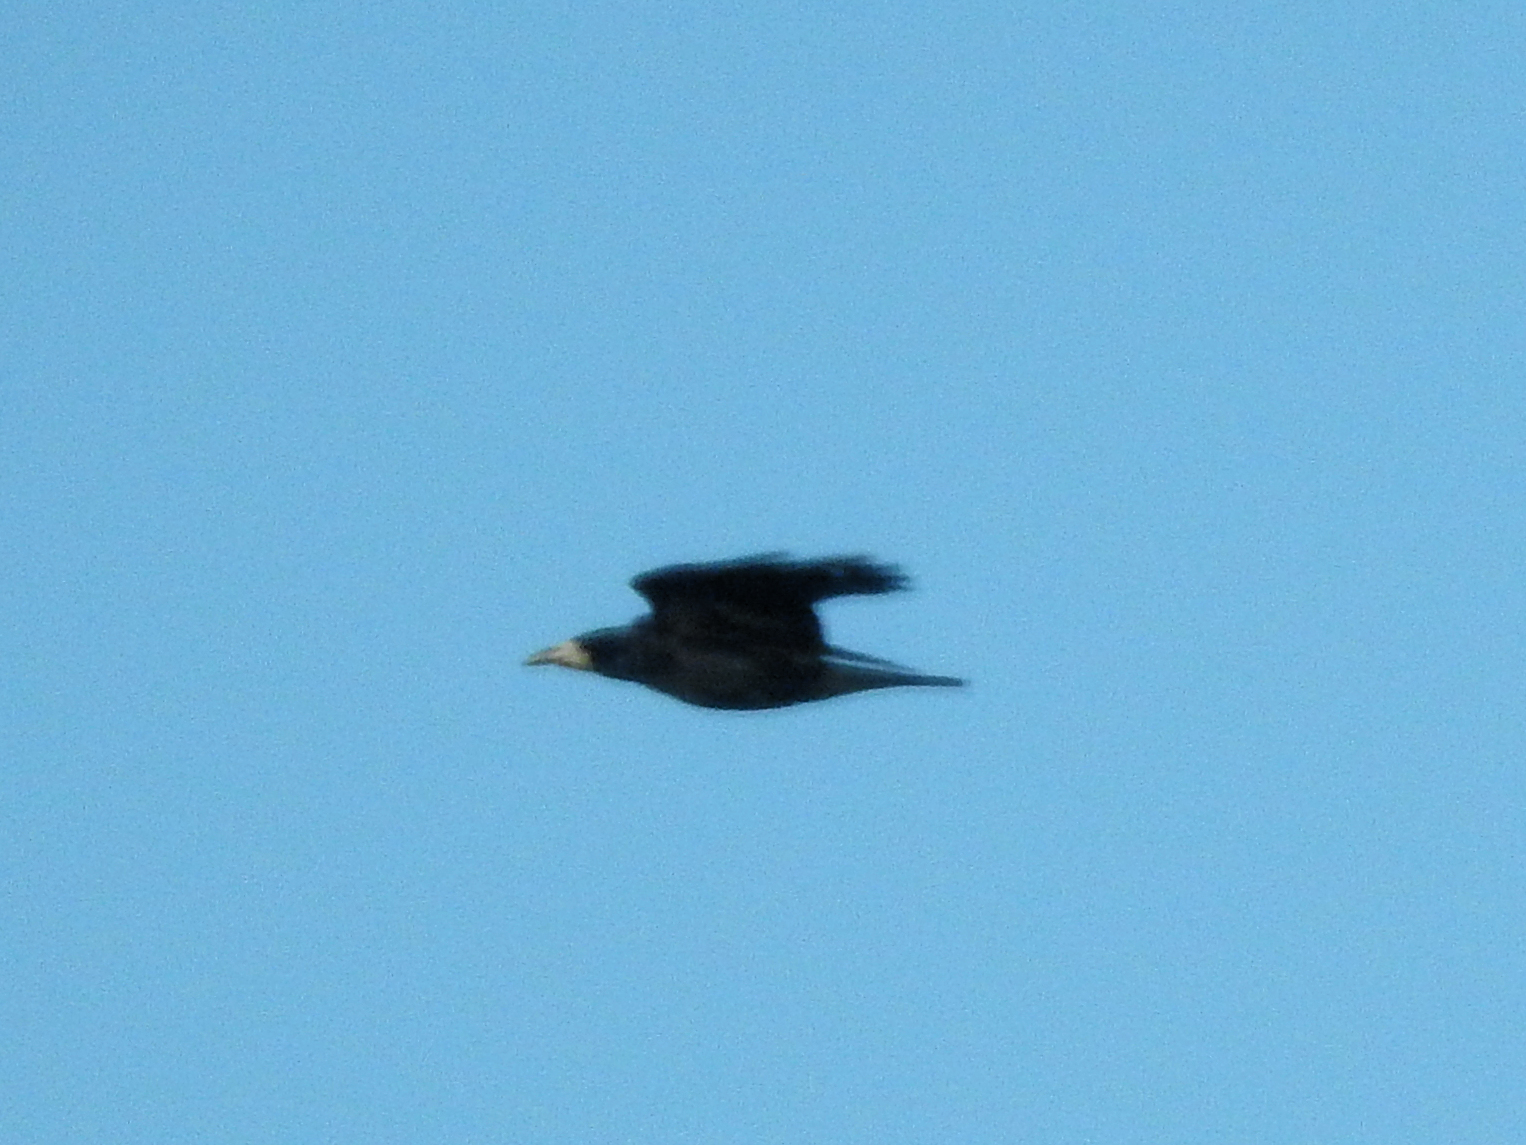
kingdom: Animalia
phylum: Chordata
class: Aves
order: Passeriformes
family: Corvidae
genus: Corvus
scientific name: Corvus frugilegus
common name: Rook
